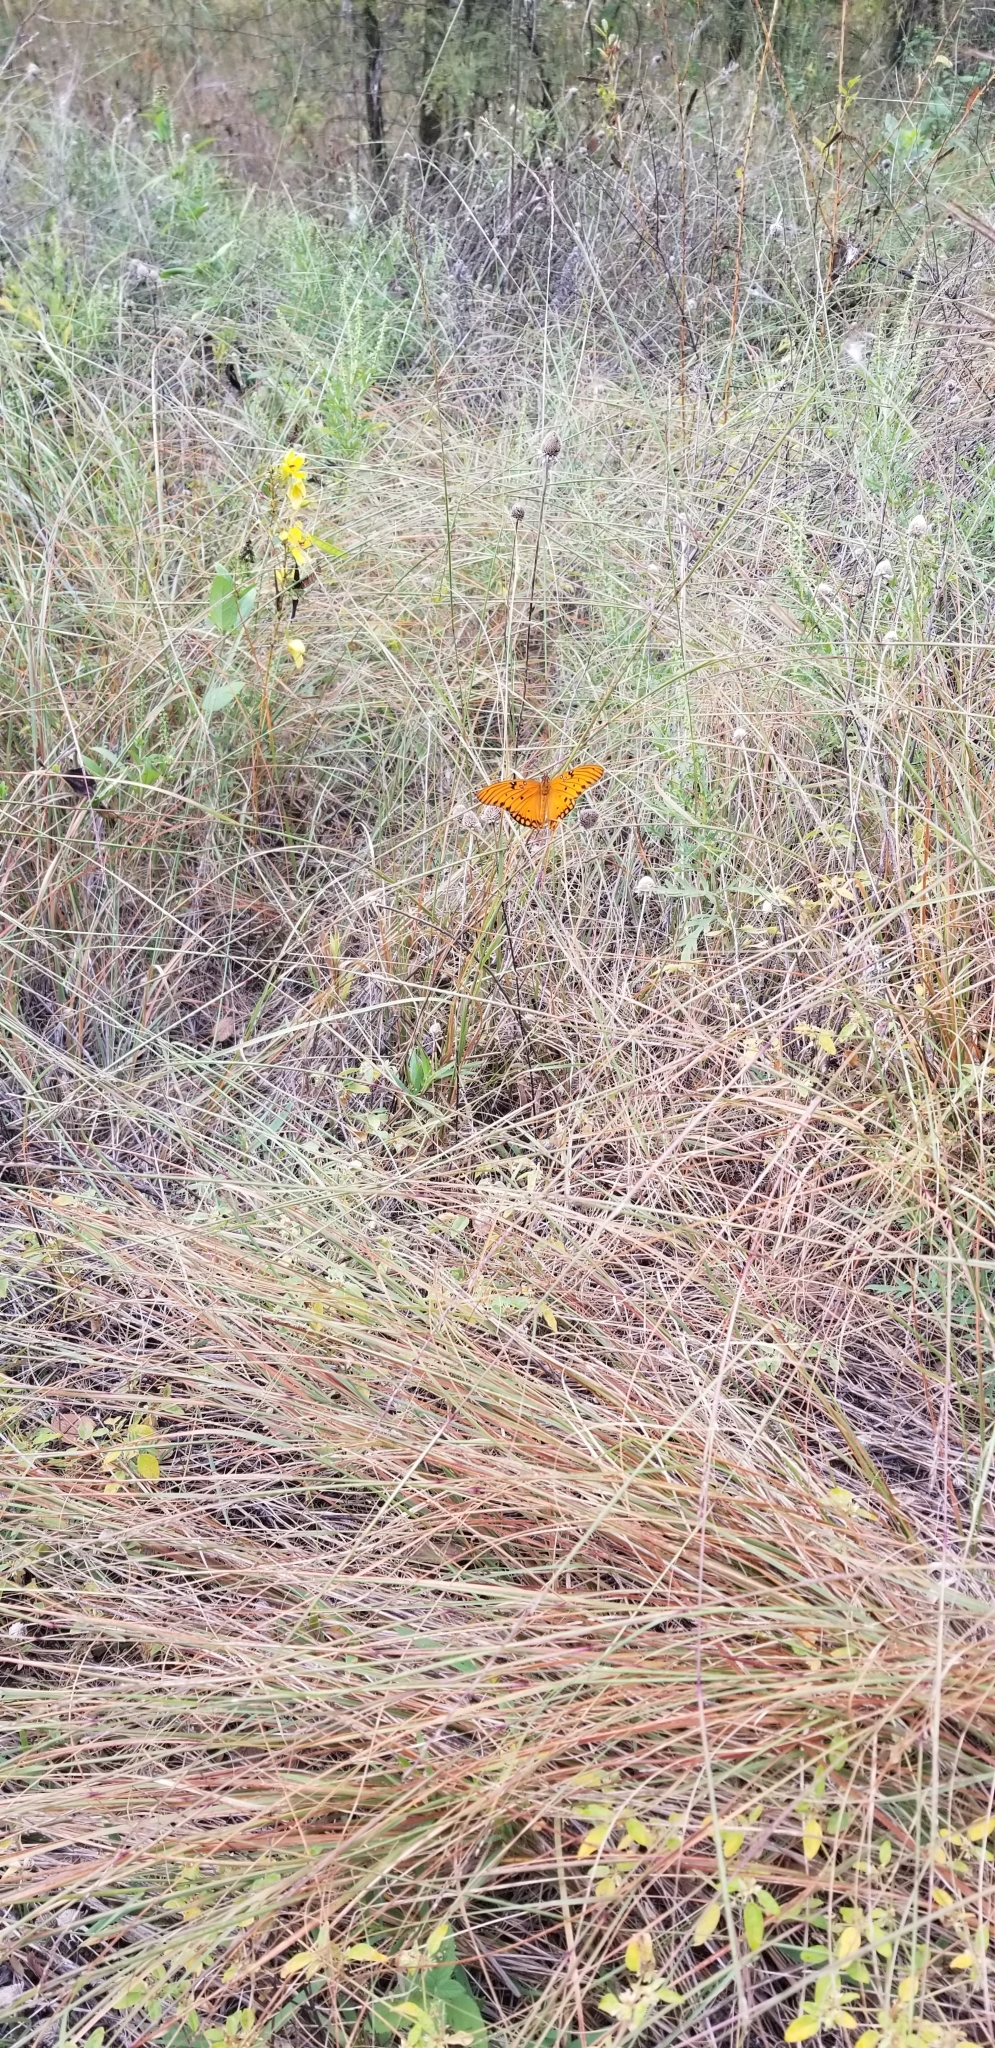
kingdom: Animalia
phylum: Arthropoda
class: Insecta
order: Lepidoptera
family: Nymphalidae
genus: Dione
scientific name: Dione vanillae
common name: Gulf fritillary
